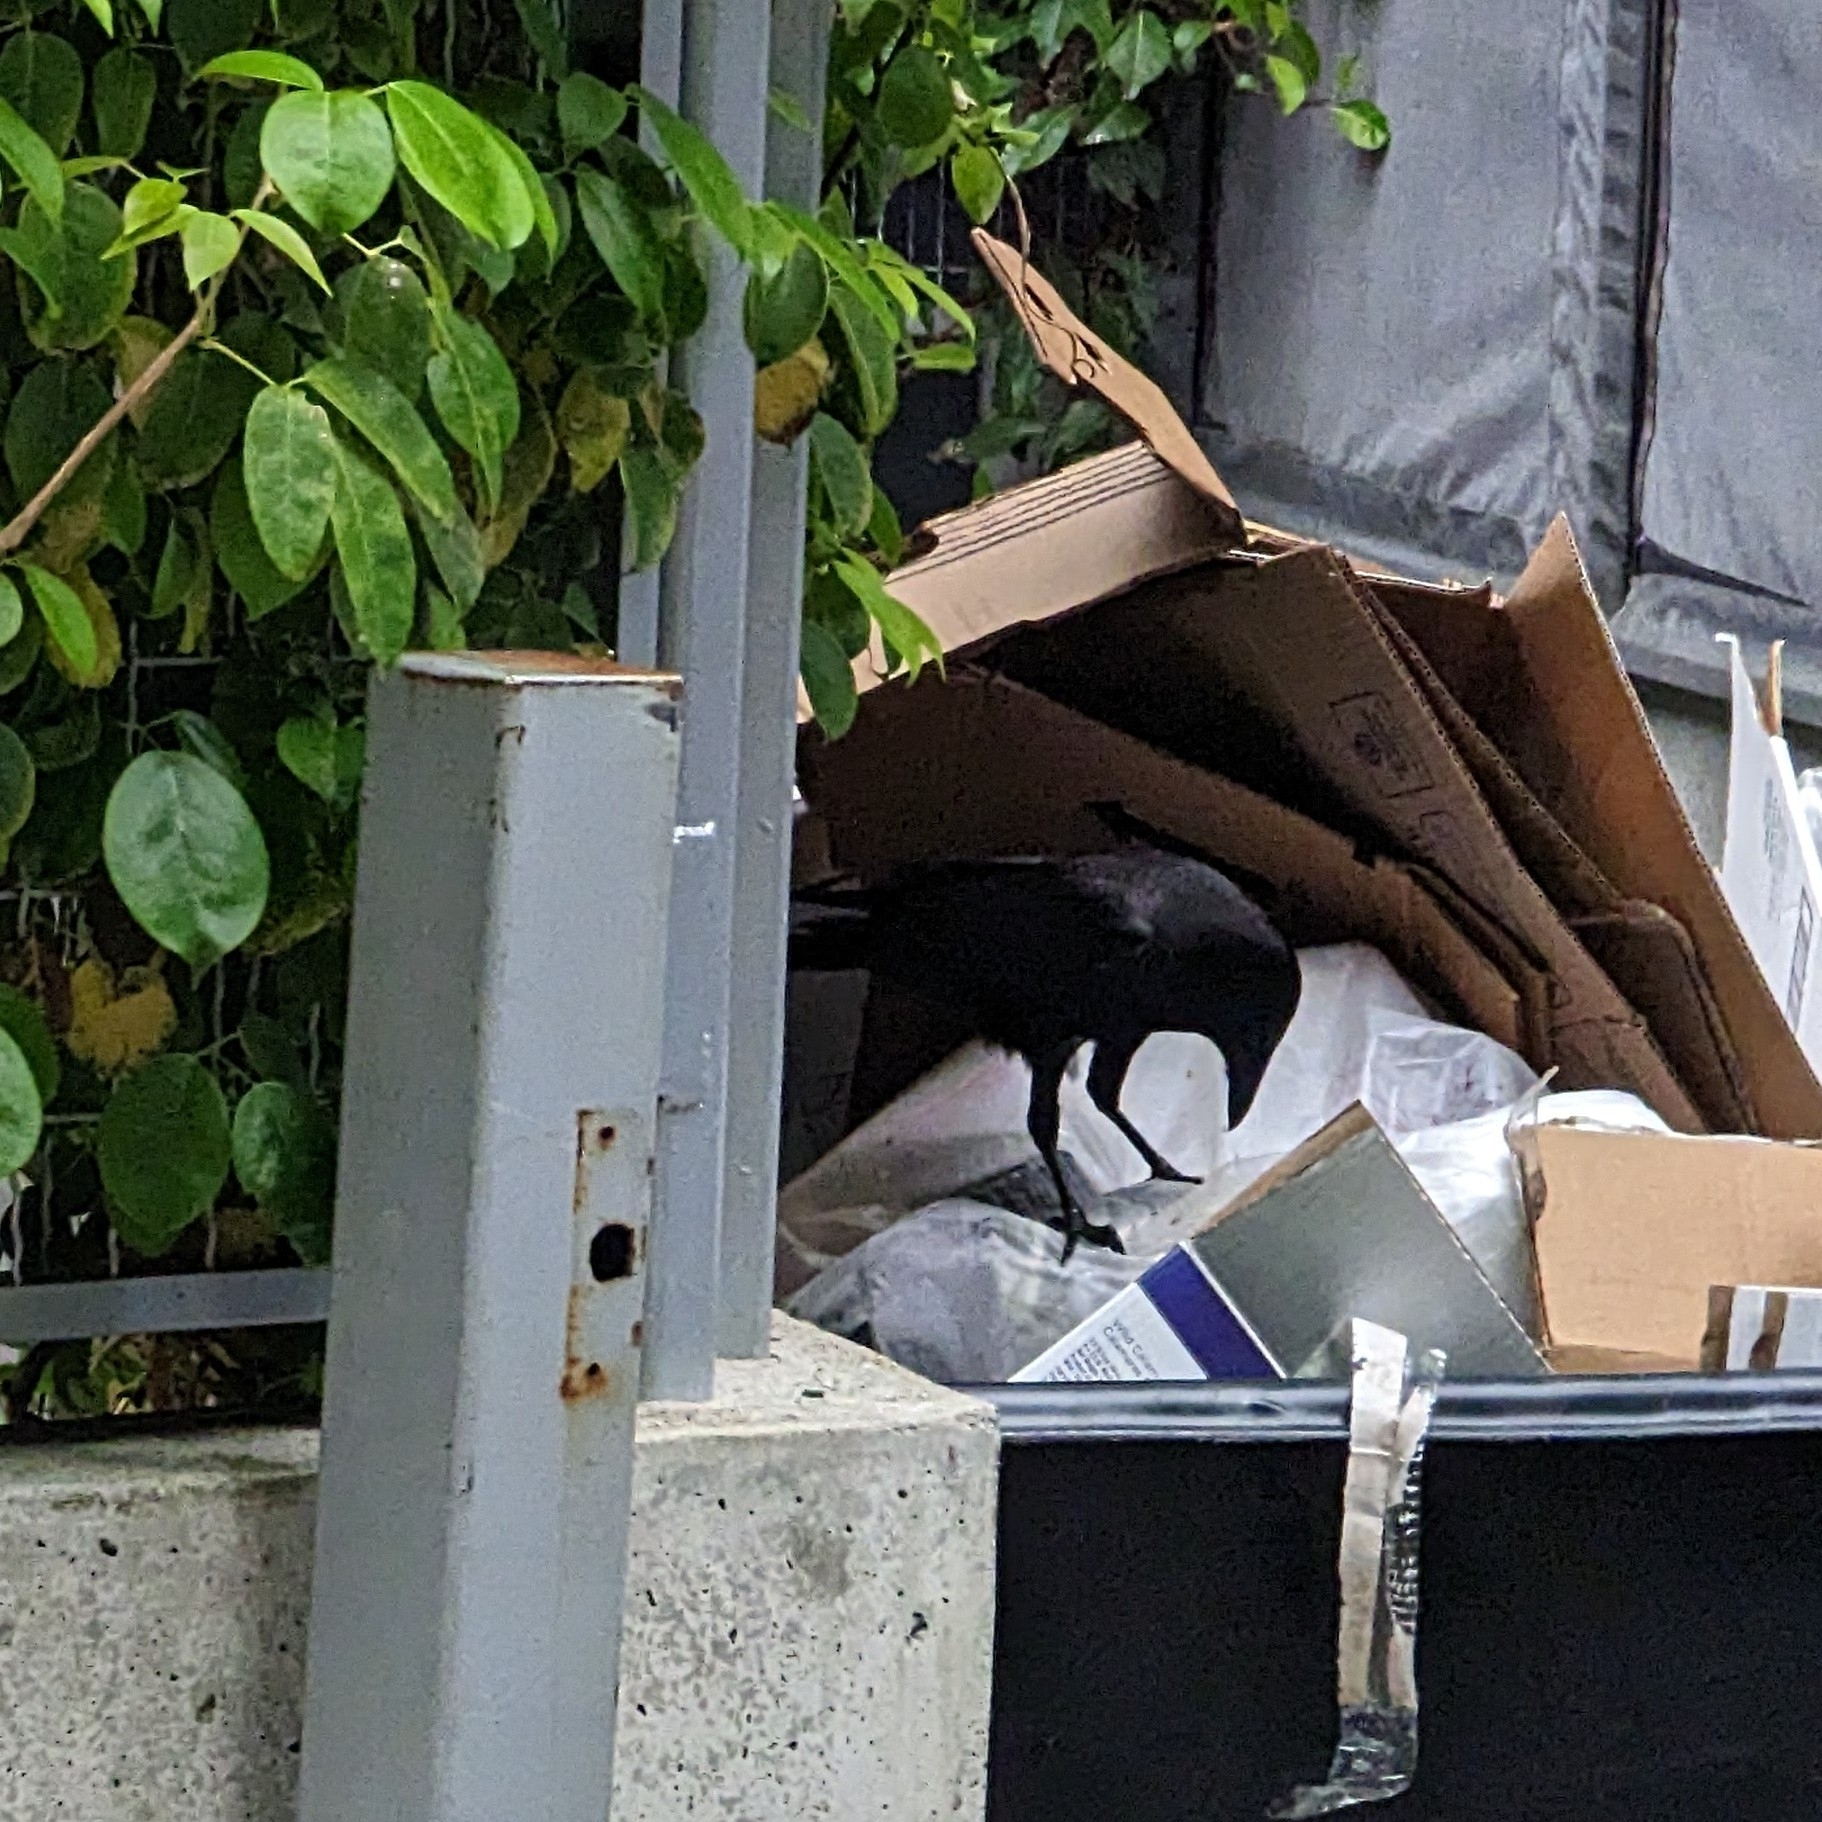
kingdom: Animalia
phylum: Chordata
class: Aves
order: Passeriformes
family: Corvidae
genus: Corvus
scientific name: Corvus brachyrhynchos
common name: American crow
